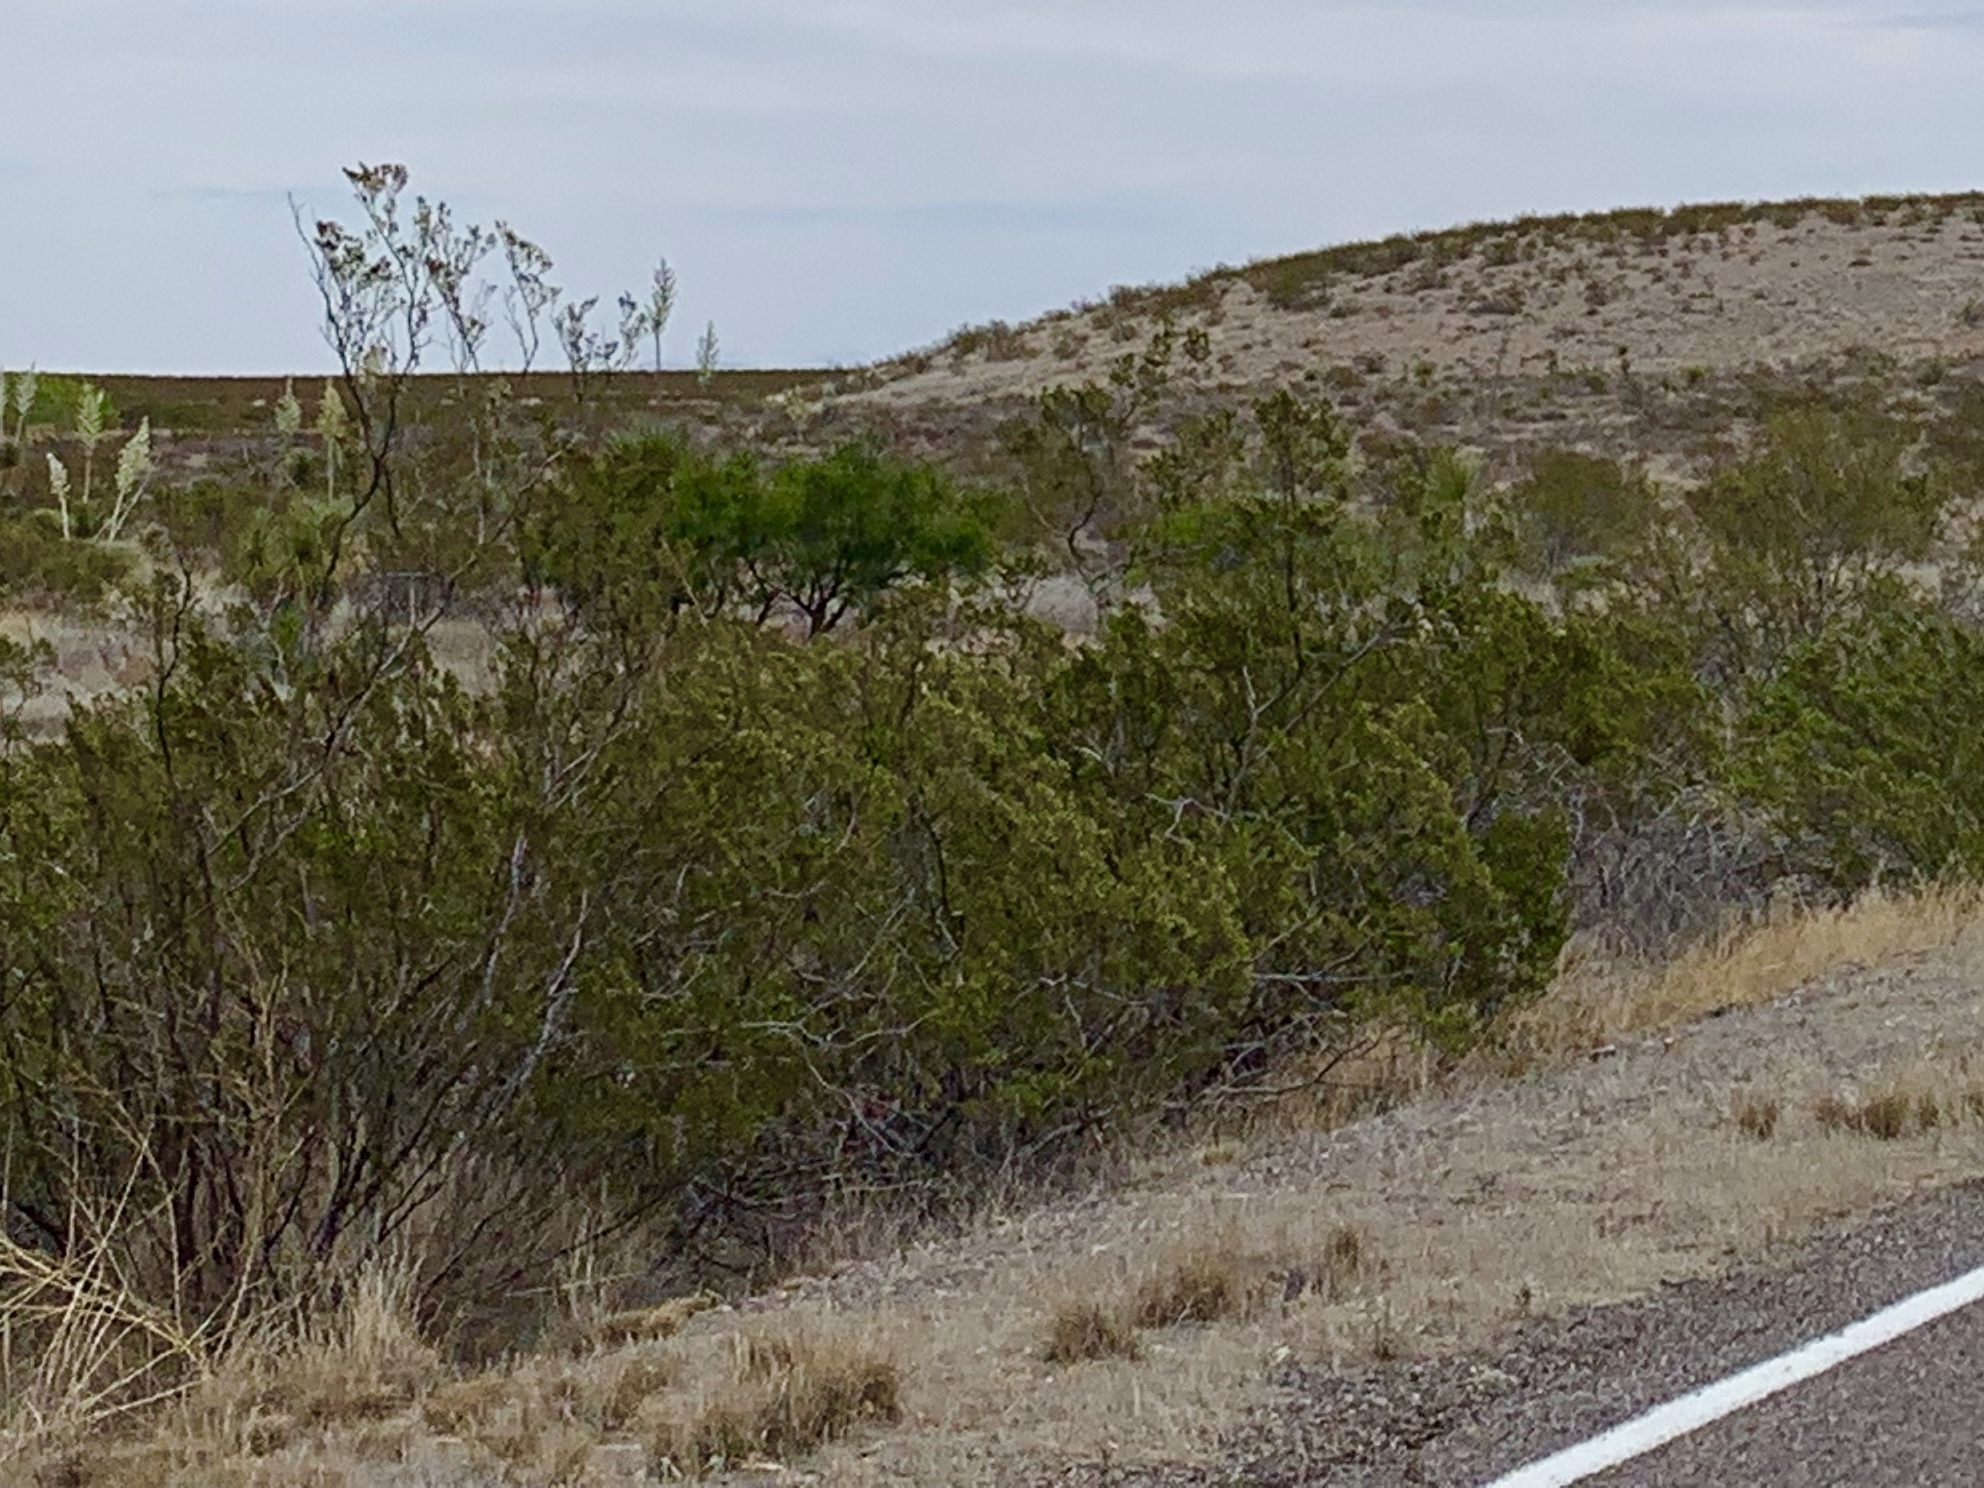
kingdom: Plantae
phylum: Tracheophyta
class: Magnoliopsida
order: Zygophyllales
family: Zygophyllaceae
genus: Larrea
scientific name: Larrea tridentata
